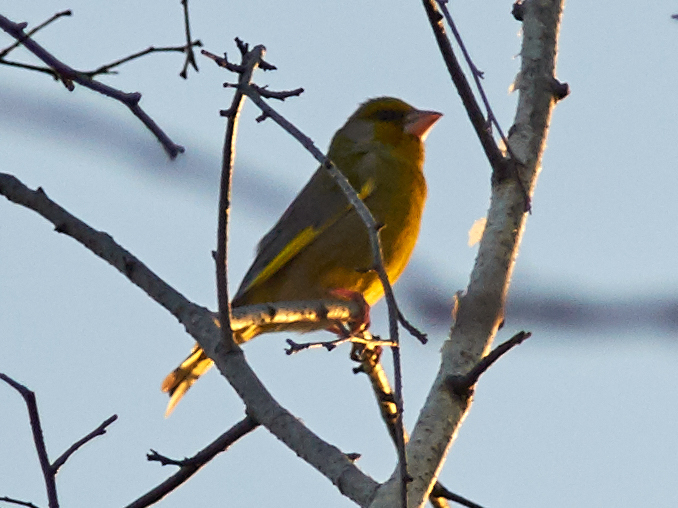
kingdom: Plantae
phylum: Tracheophyta
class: Liliopsida
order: Poales
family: Poaceae
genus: Chloris
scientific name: Chloris chloris
